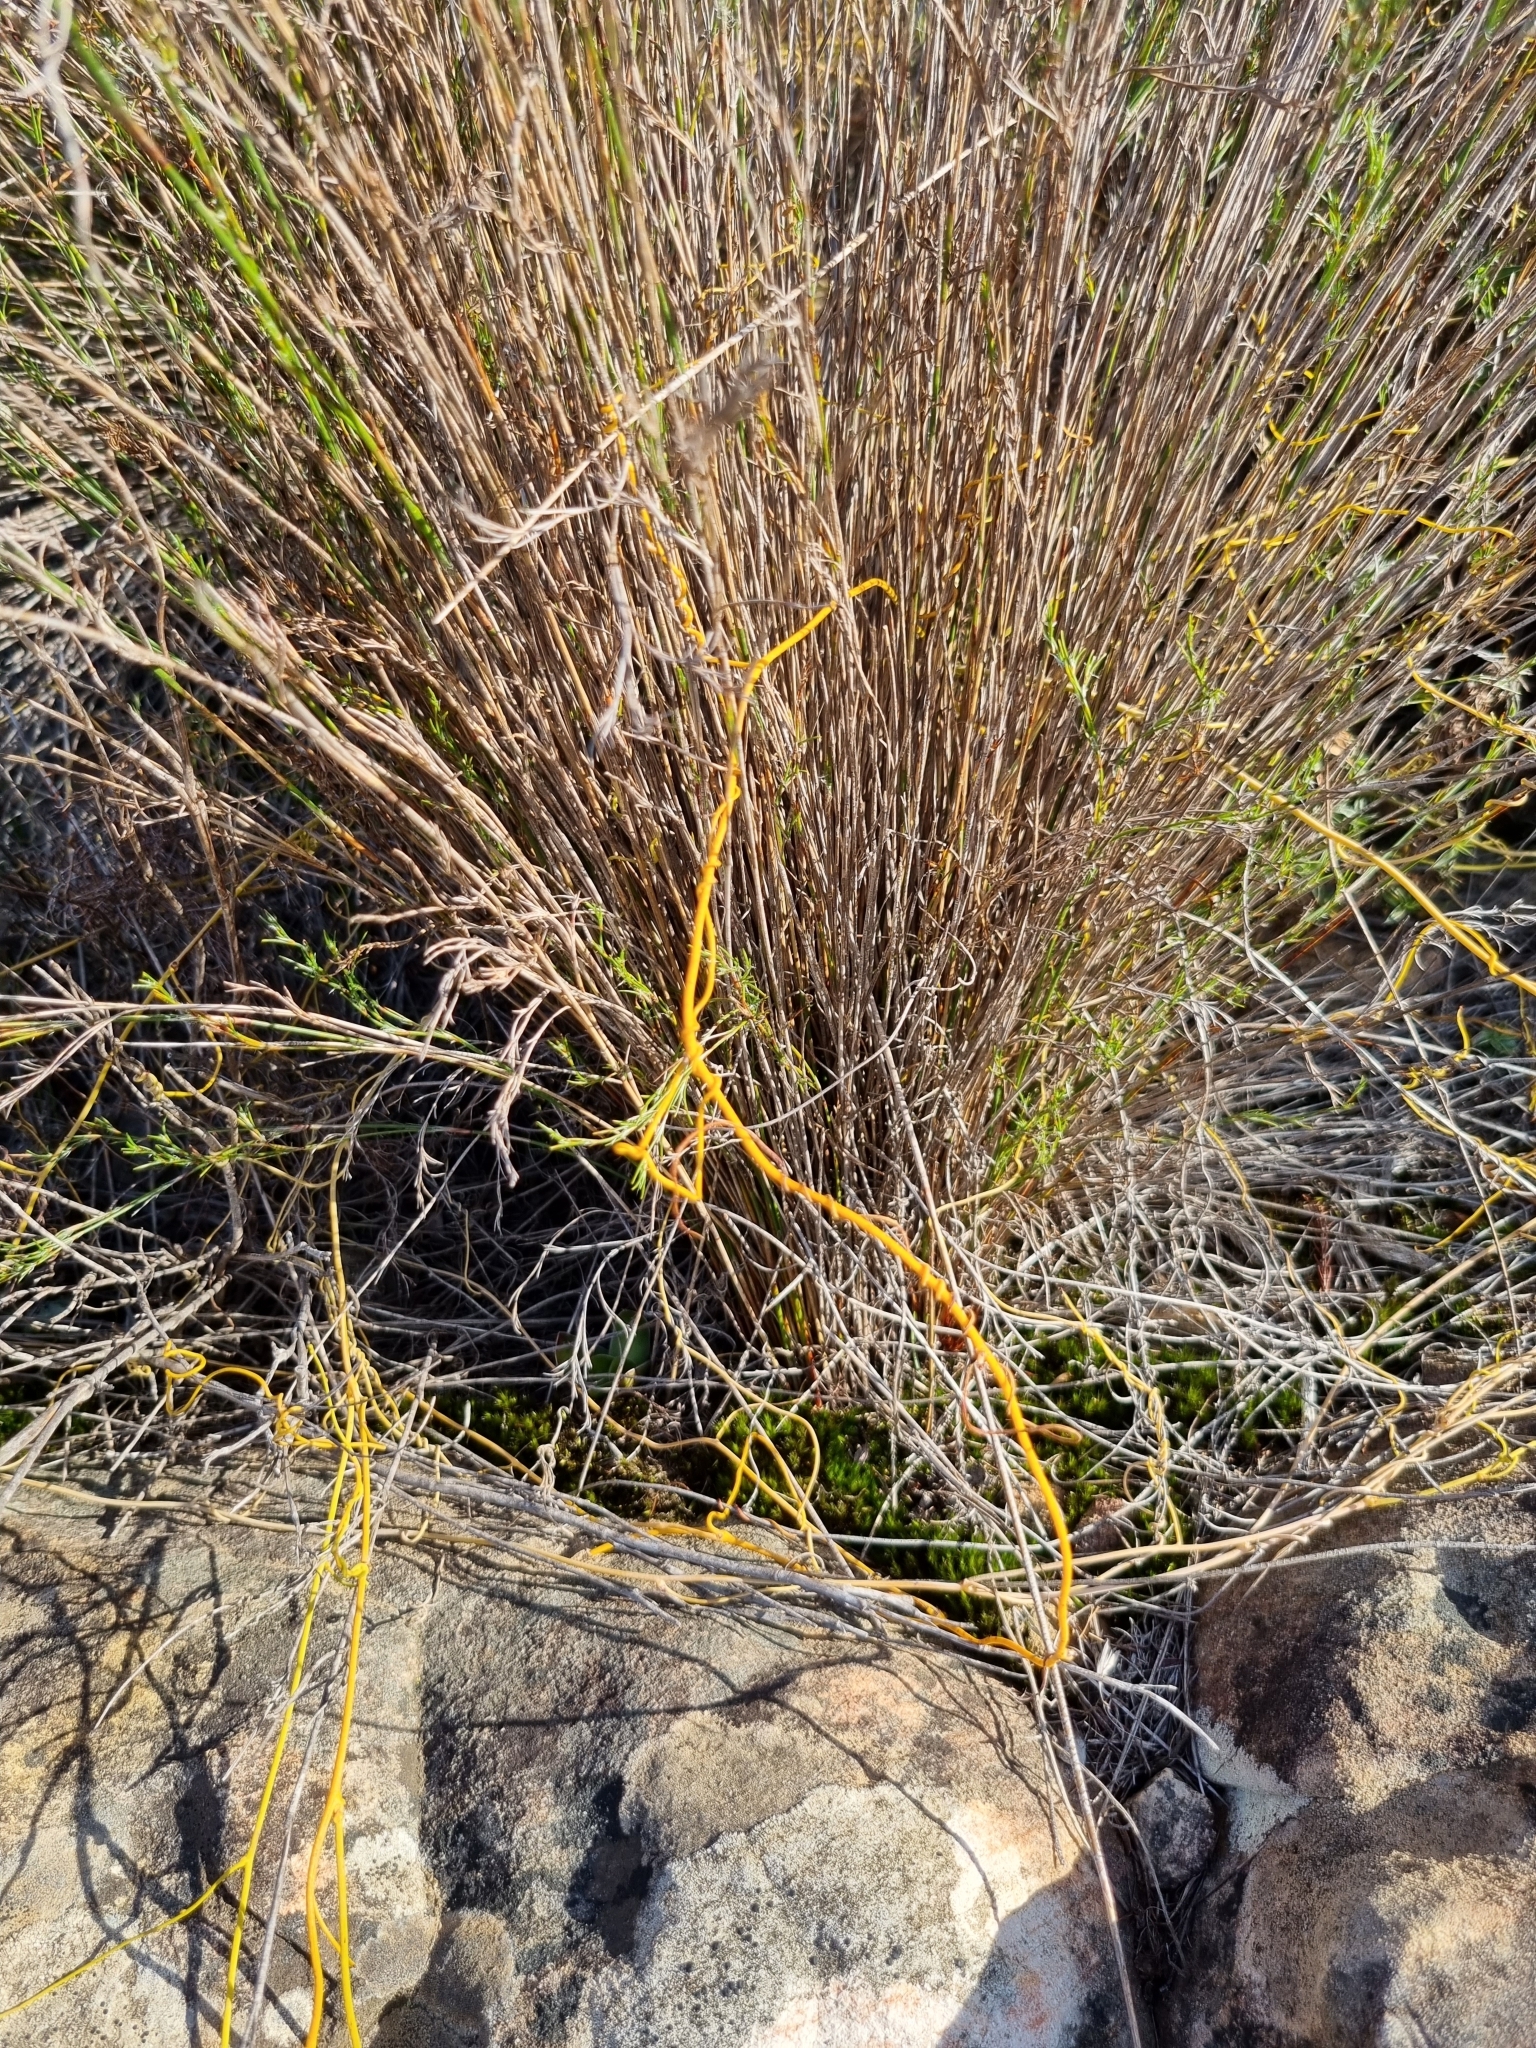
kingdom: Plantae
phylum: Tracheophyta
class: Magnoliopsida
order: Laurales
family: Lauraceae
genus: Cassytha
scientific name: Cassytha ciliolata
